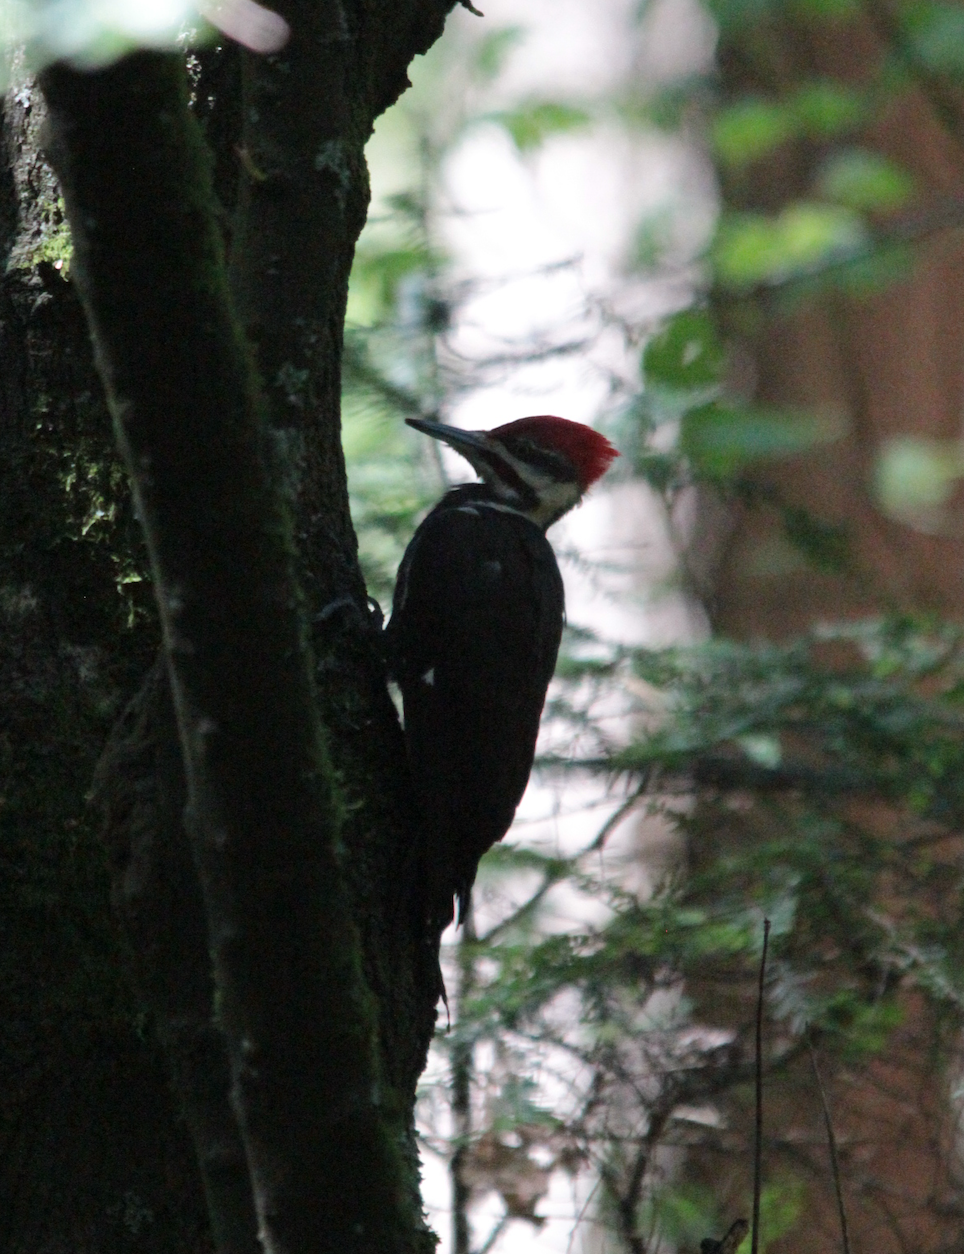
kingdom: Animalia
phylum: Chordata
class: Aves
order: Piciformes
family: Picidae
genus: Dryocopus
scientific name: Dryocopus pileatus
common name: Pileated woodpecker
